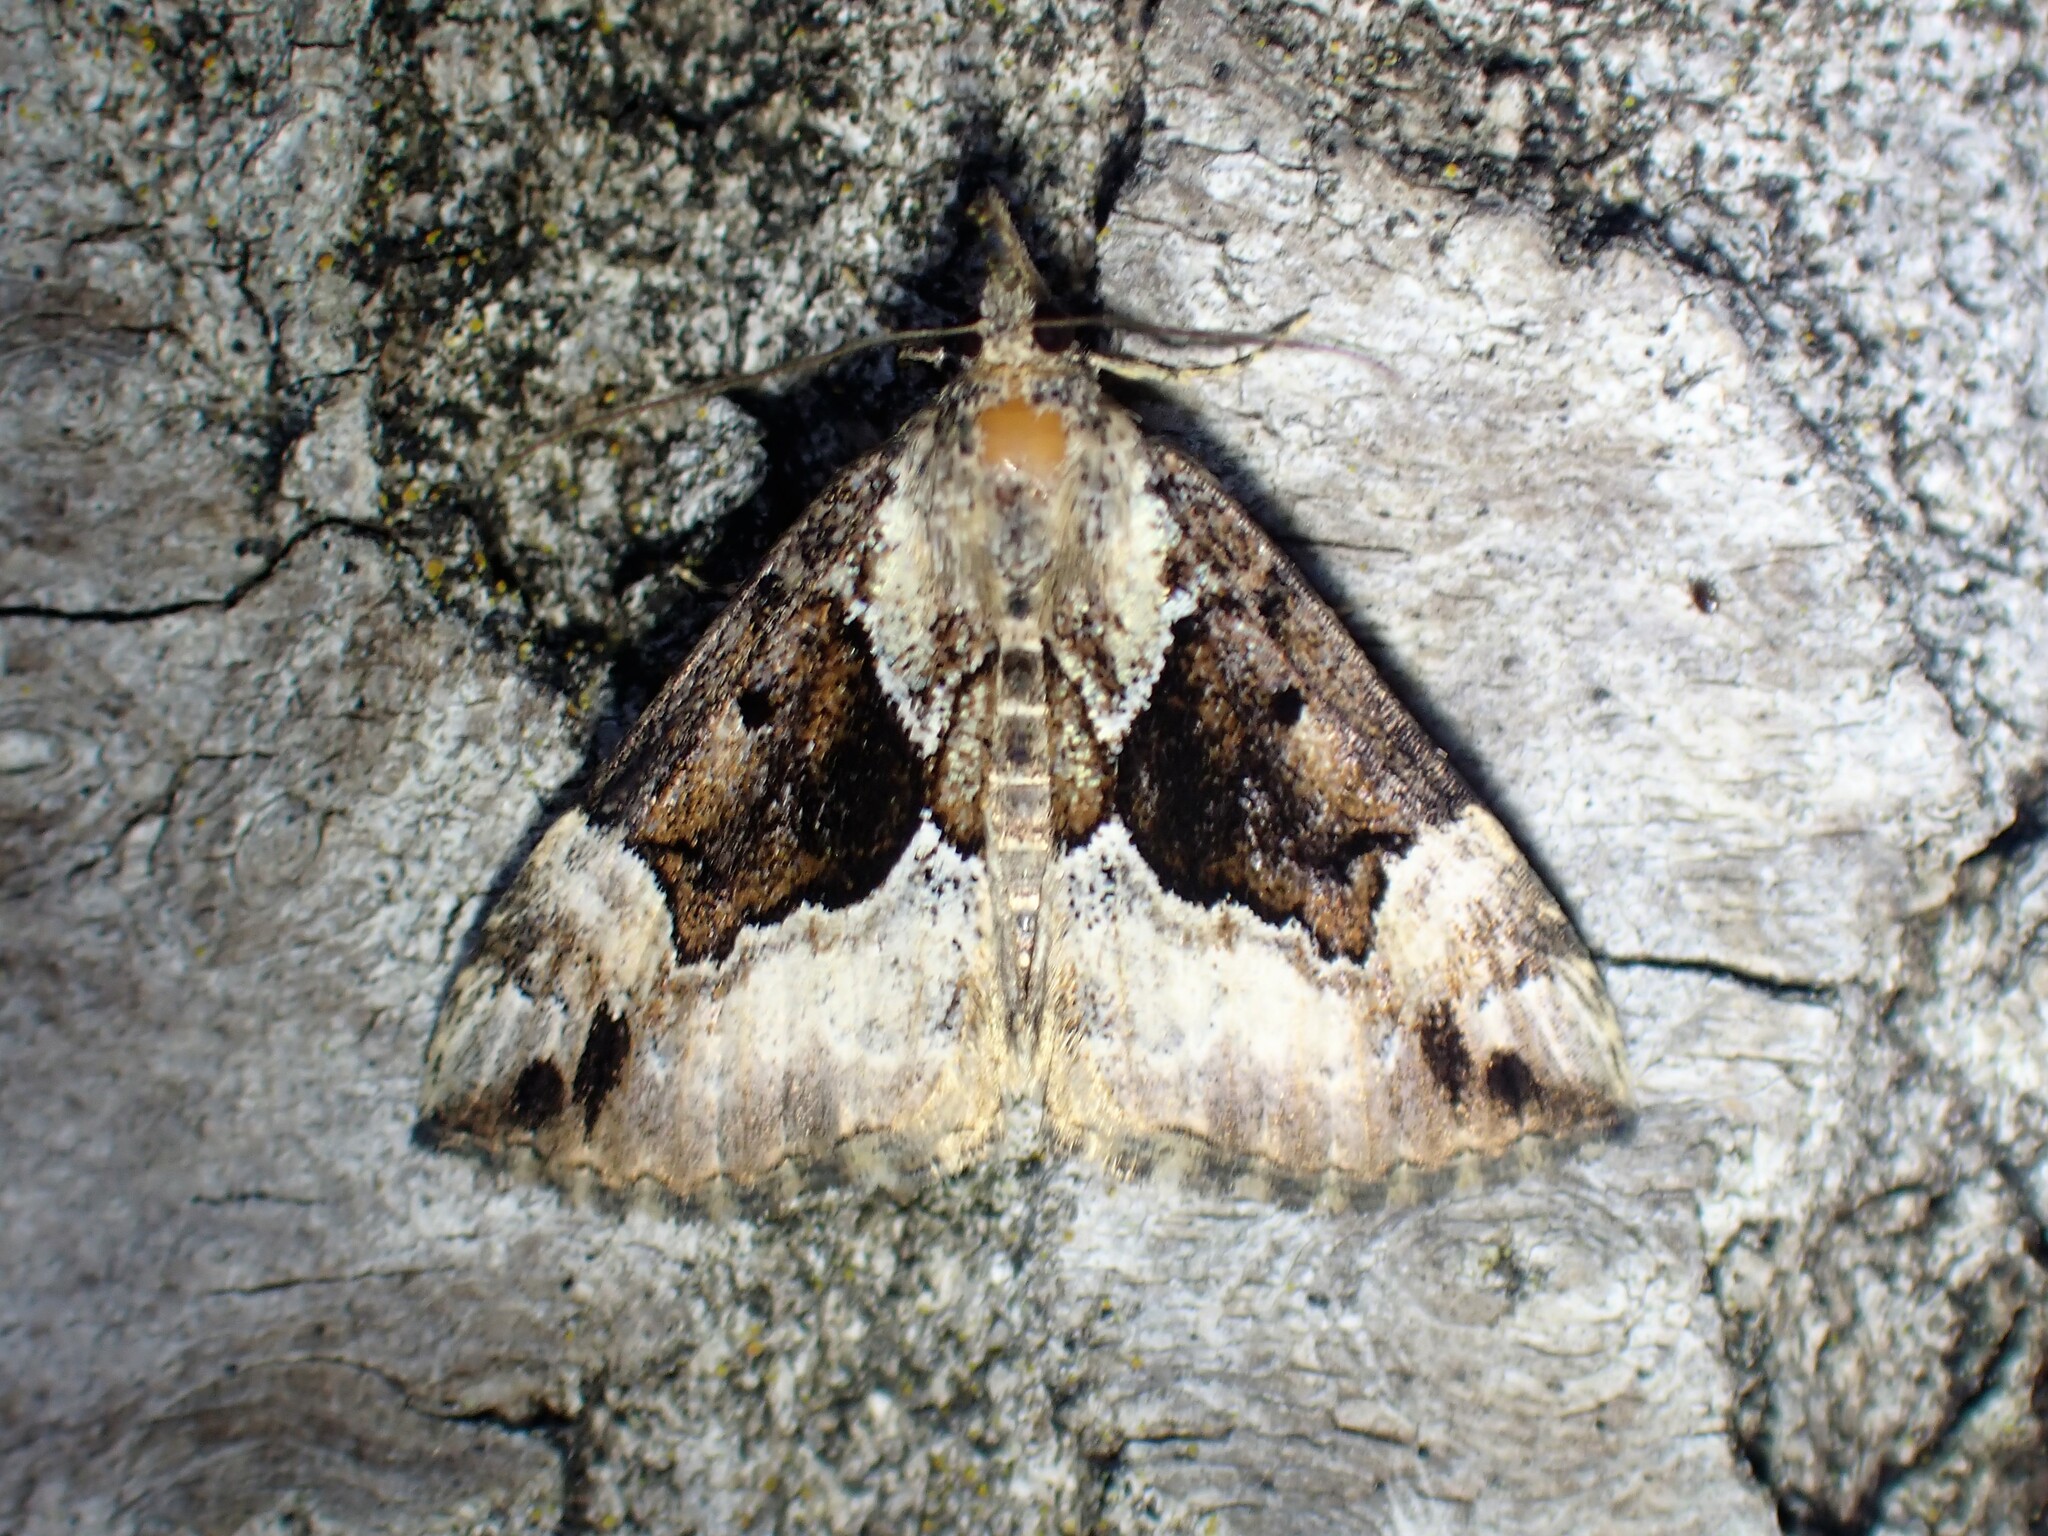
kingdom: Animalia
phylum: Arthropoda
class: Insecta
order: Lepidoptera
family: Erebidae
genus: Hypena
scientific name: Hypena palparia
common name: Mottled bomolocha moth
